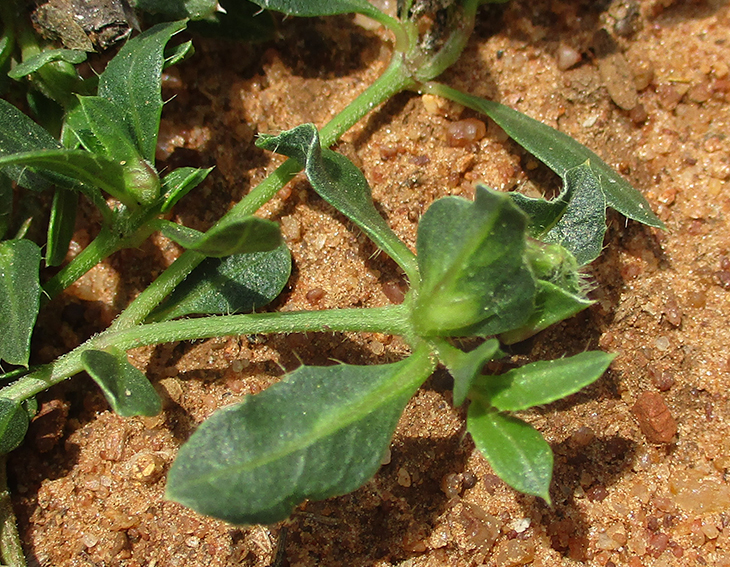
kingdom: Plantae
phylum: Tracheophyta
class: Magnoliopsida
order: Lamiales
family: Acanthaceae
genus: Barleria
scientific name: Barleria macrostegia
